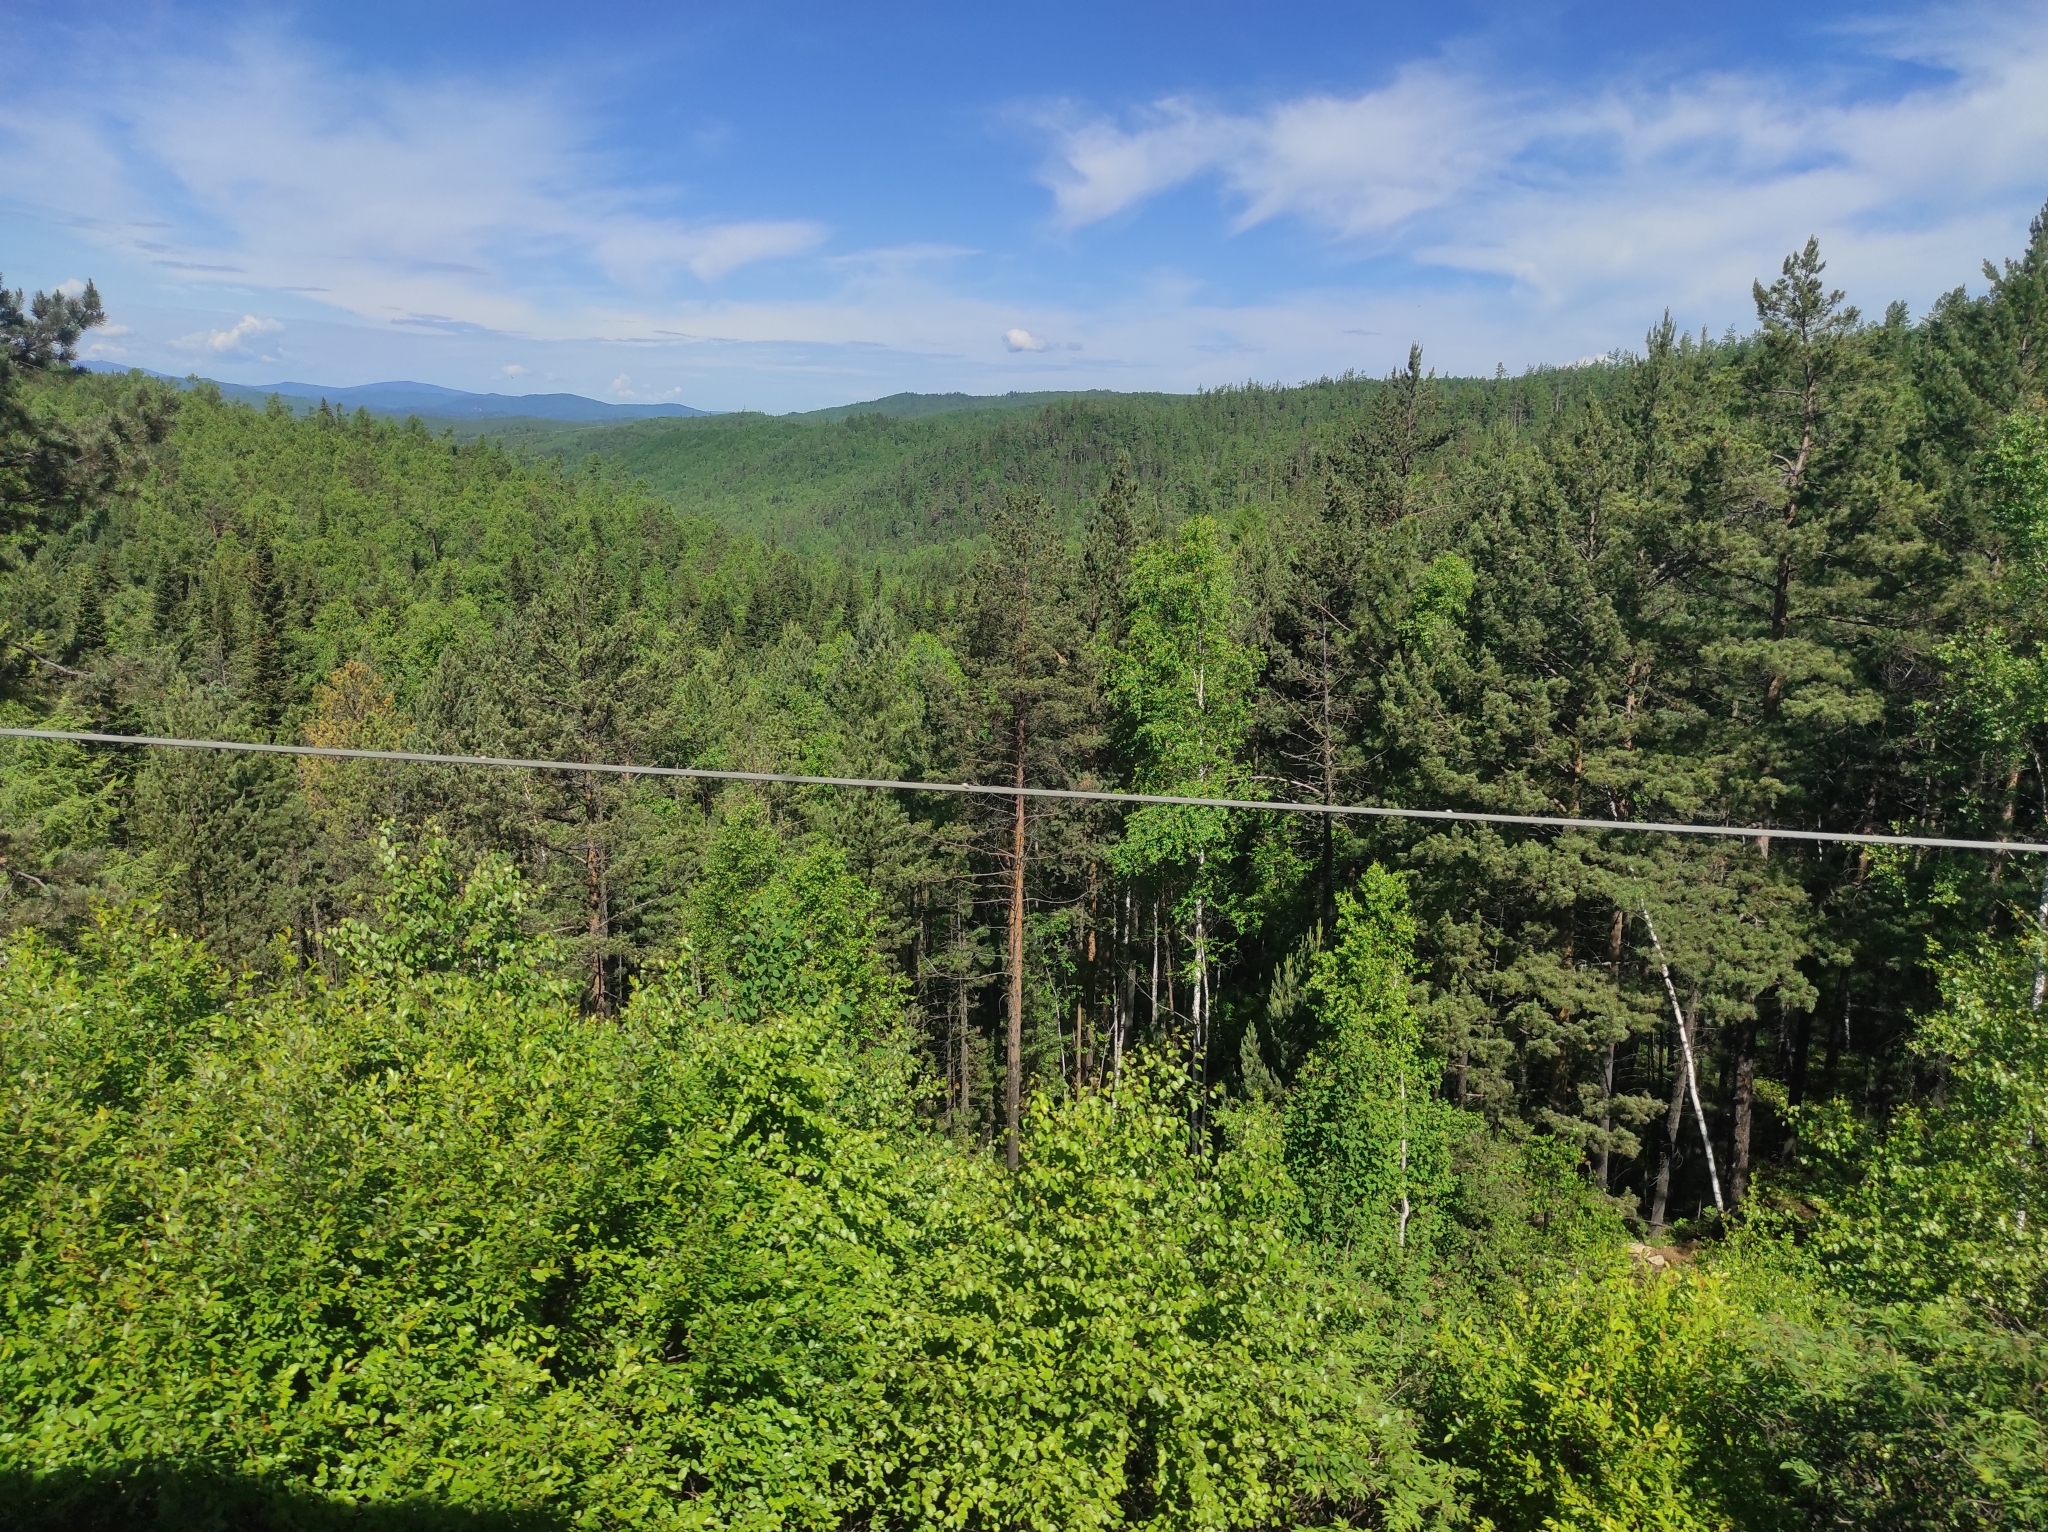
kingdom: Plantae
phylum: Tracheophyta
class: Pinopsida
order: Pinales
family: Pinaceae
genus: Pinus
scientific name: Pinus sylvestris
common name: Scots pine
